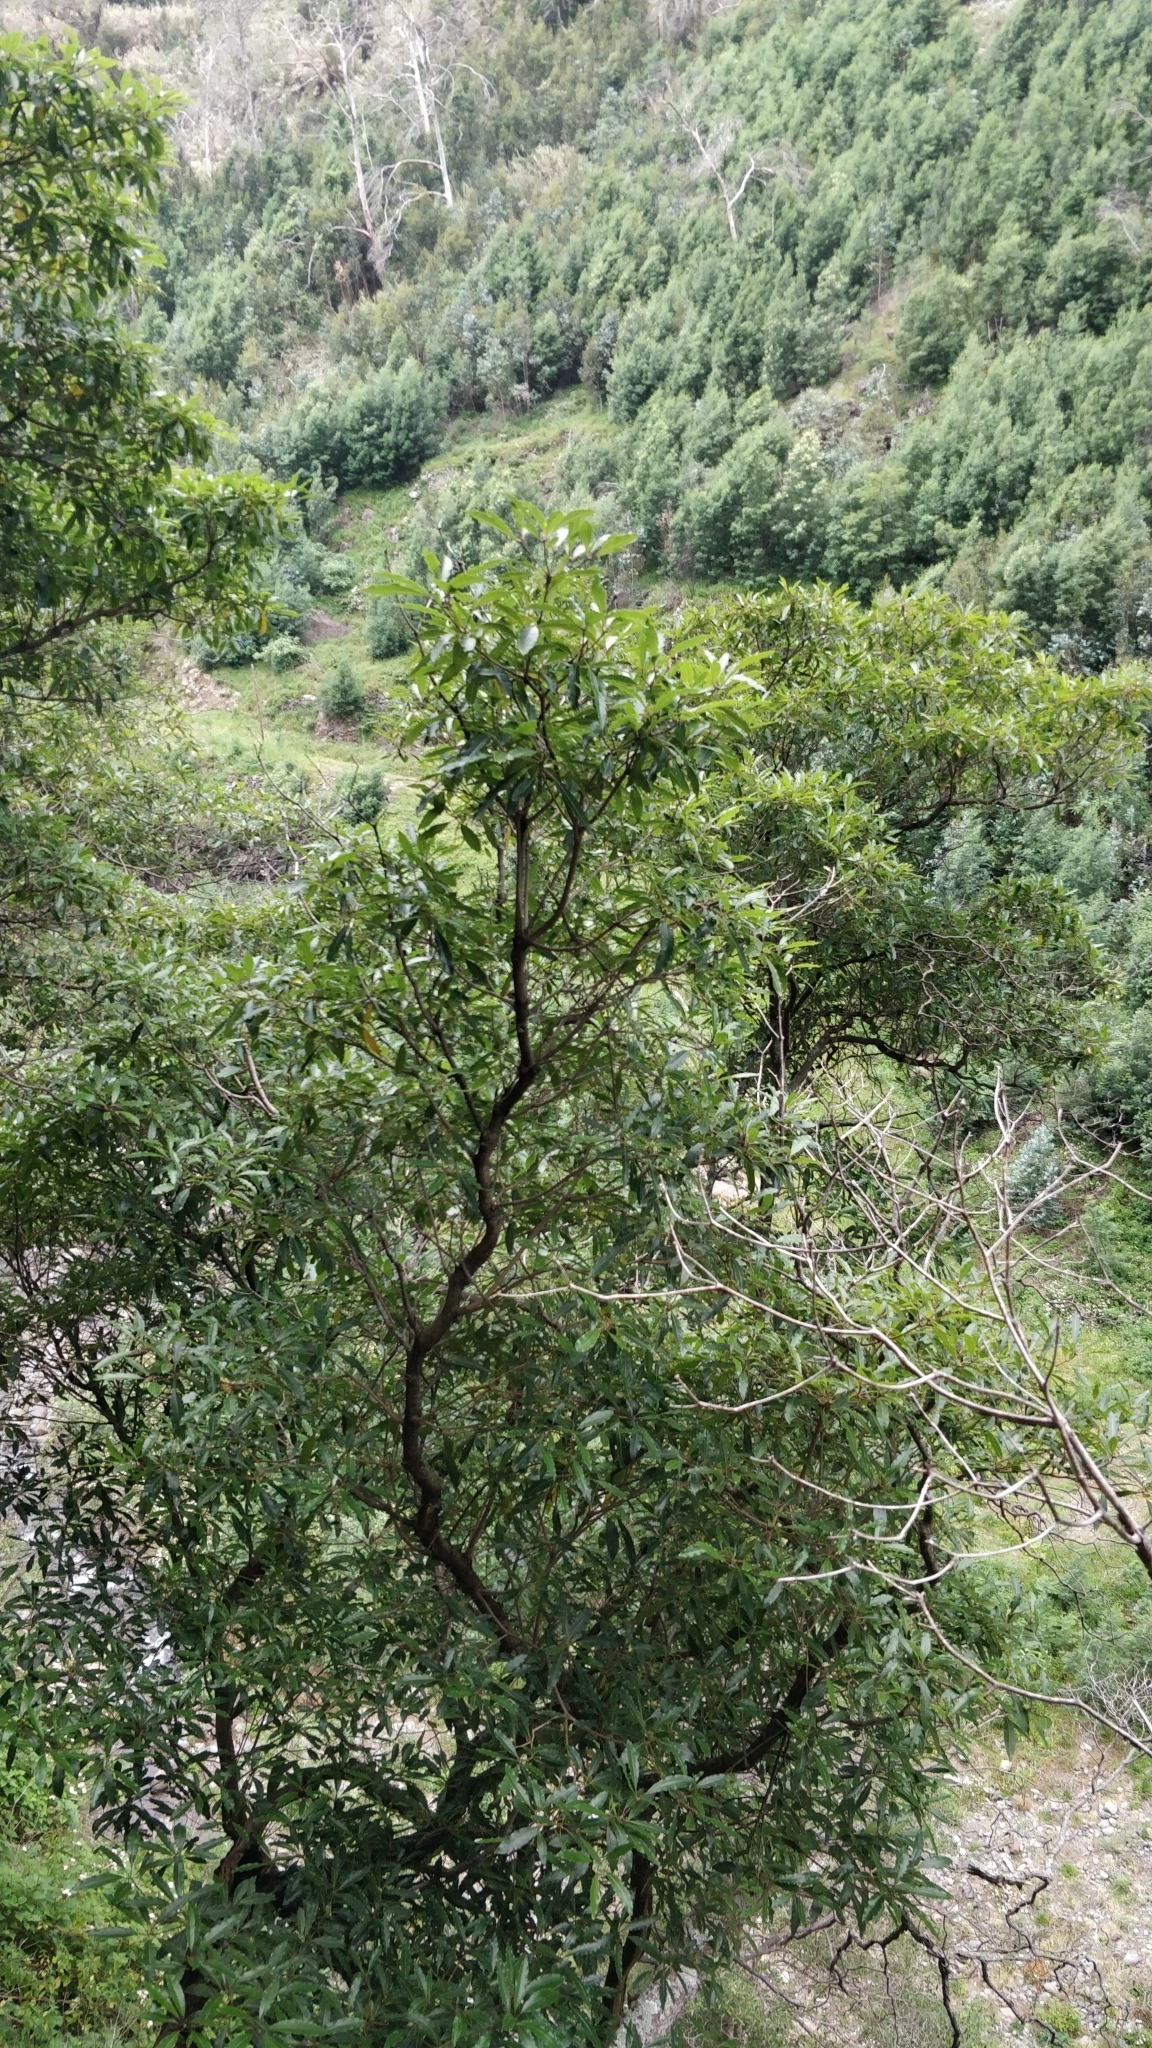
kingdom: Plantae
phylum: Tracheophyta
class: Magnoliopsida
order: Apiales
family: Pittosporaceae
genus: Pittosporum
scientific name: Pittosporum undulatum
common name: Australian cheesewood
